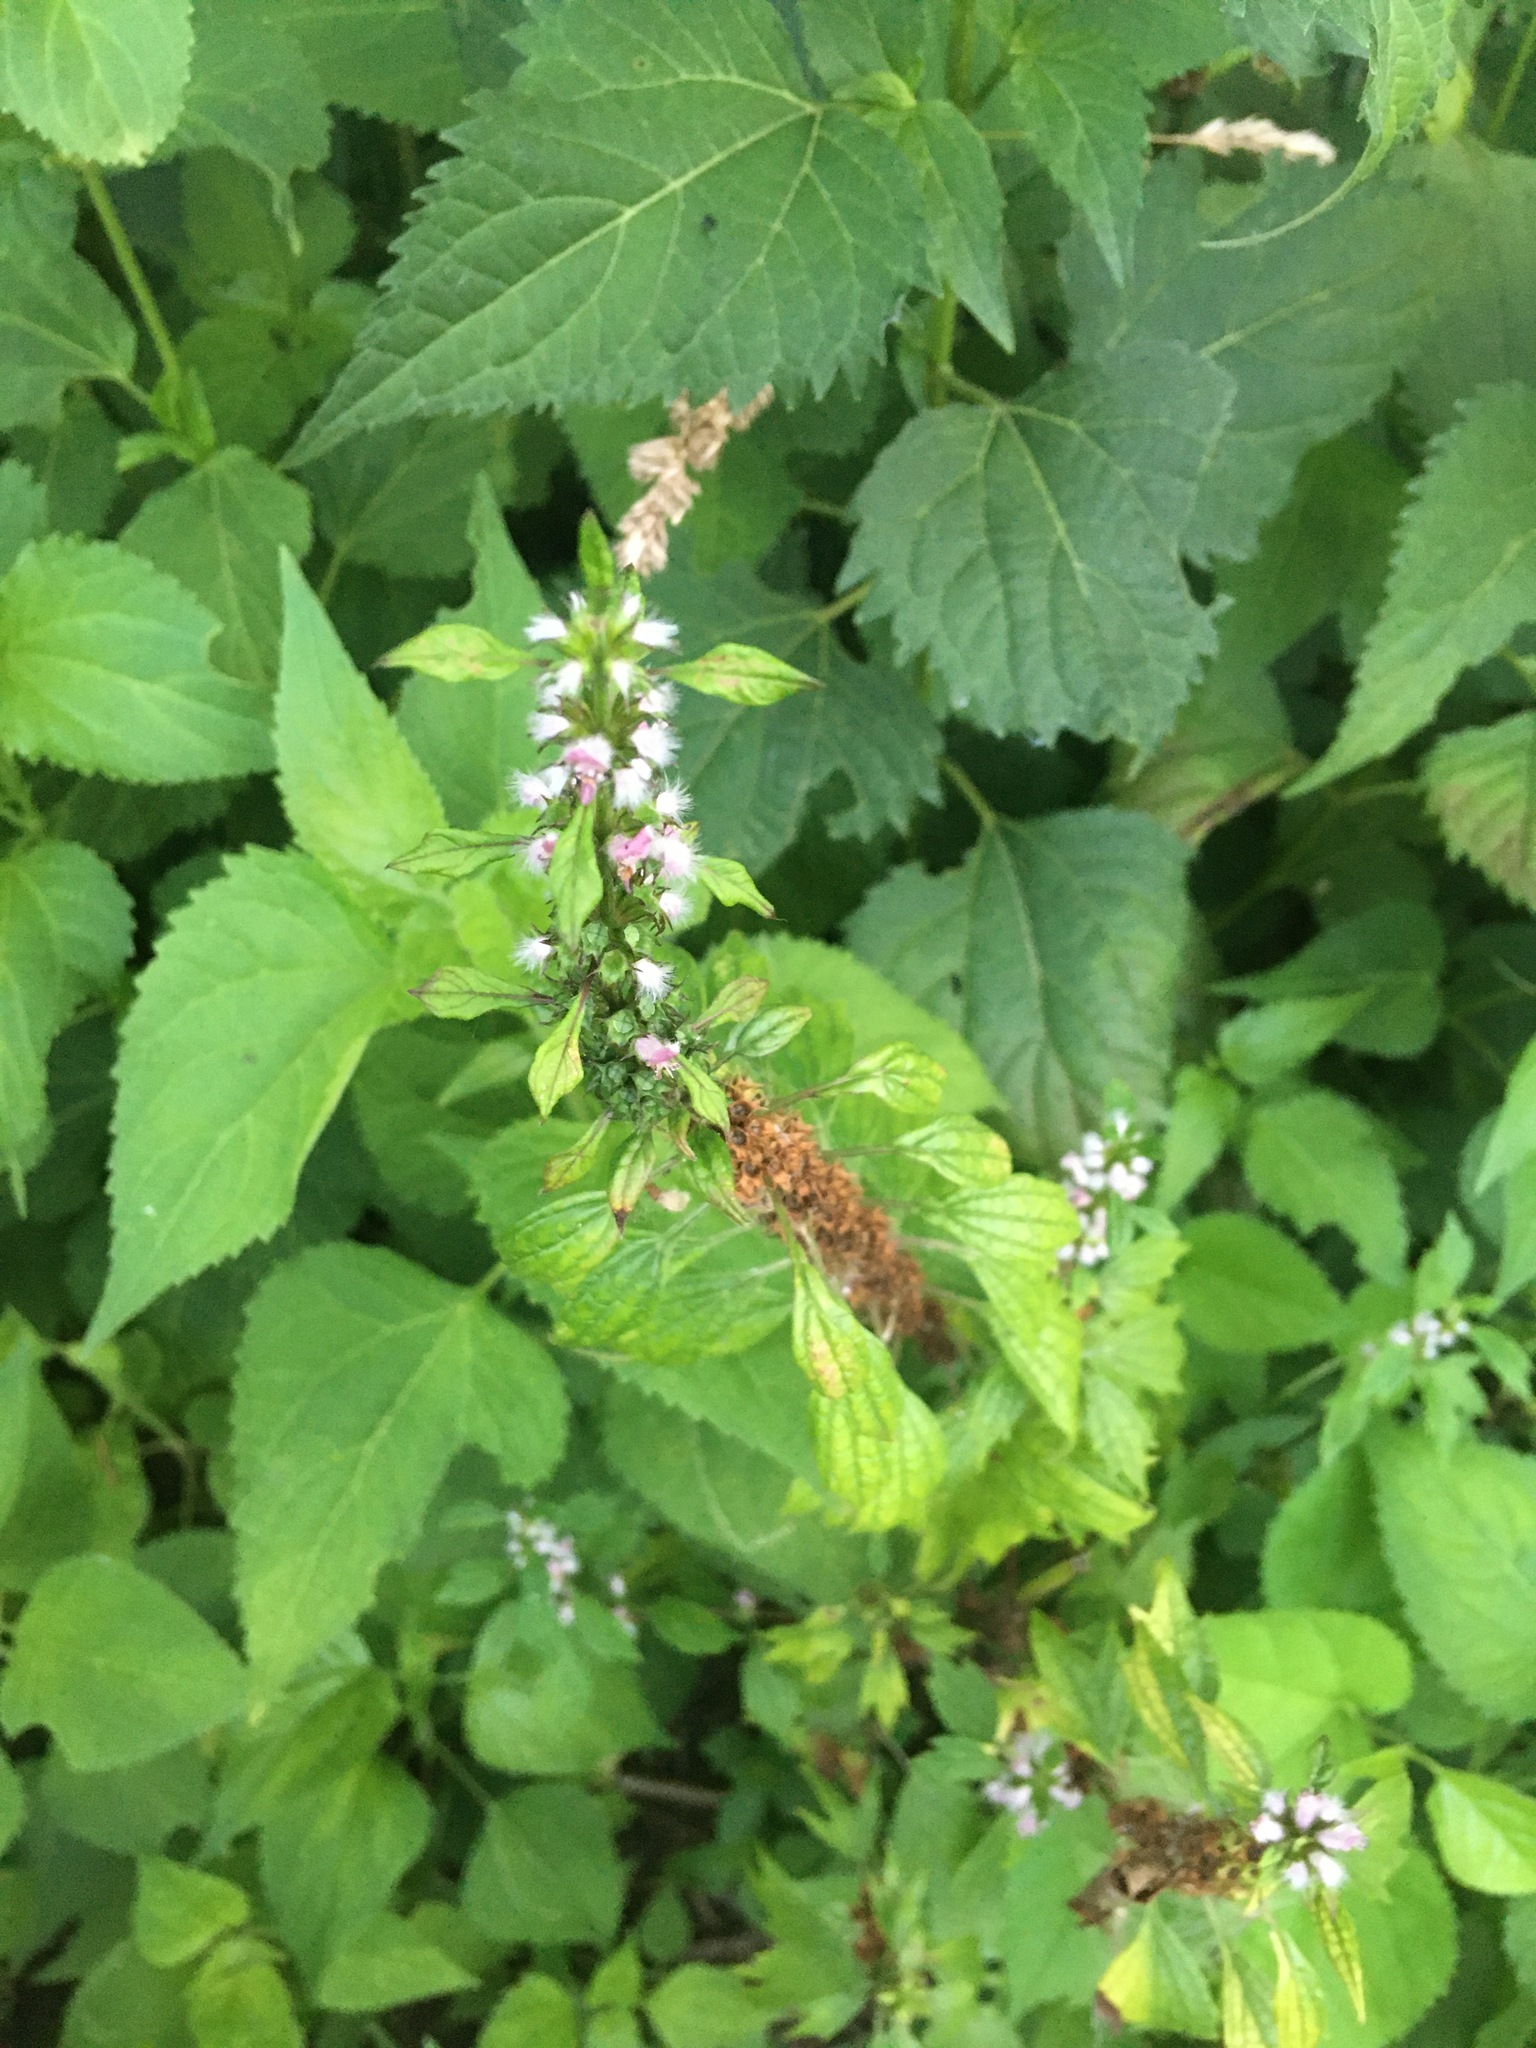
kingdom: Plantae
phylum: Tracheophyta
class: Magnoliopsida
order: Lamiales
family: Lamiaceae
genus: Leonurus
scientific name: Leonurus cardiaca
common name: Motherwort
